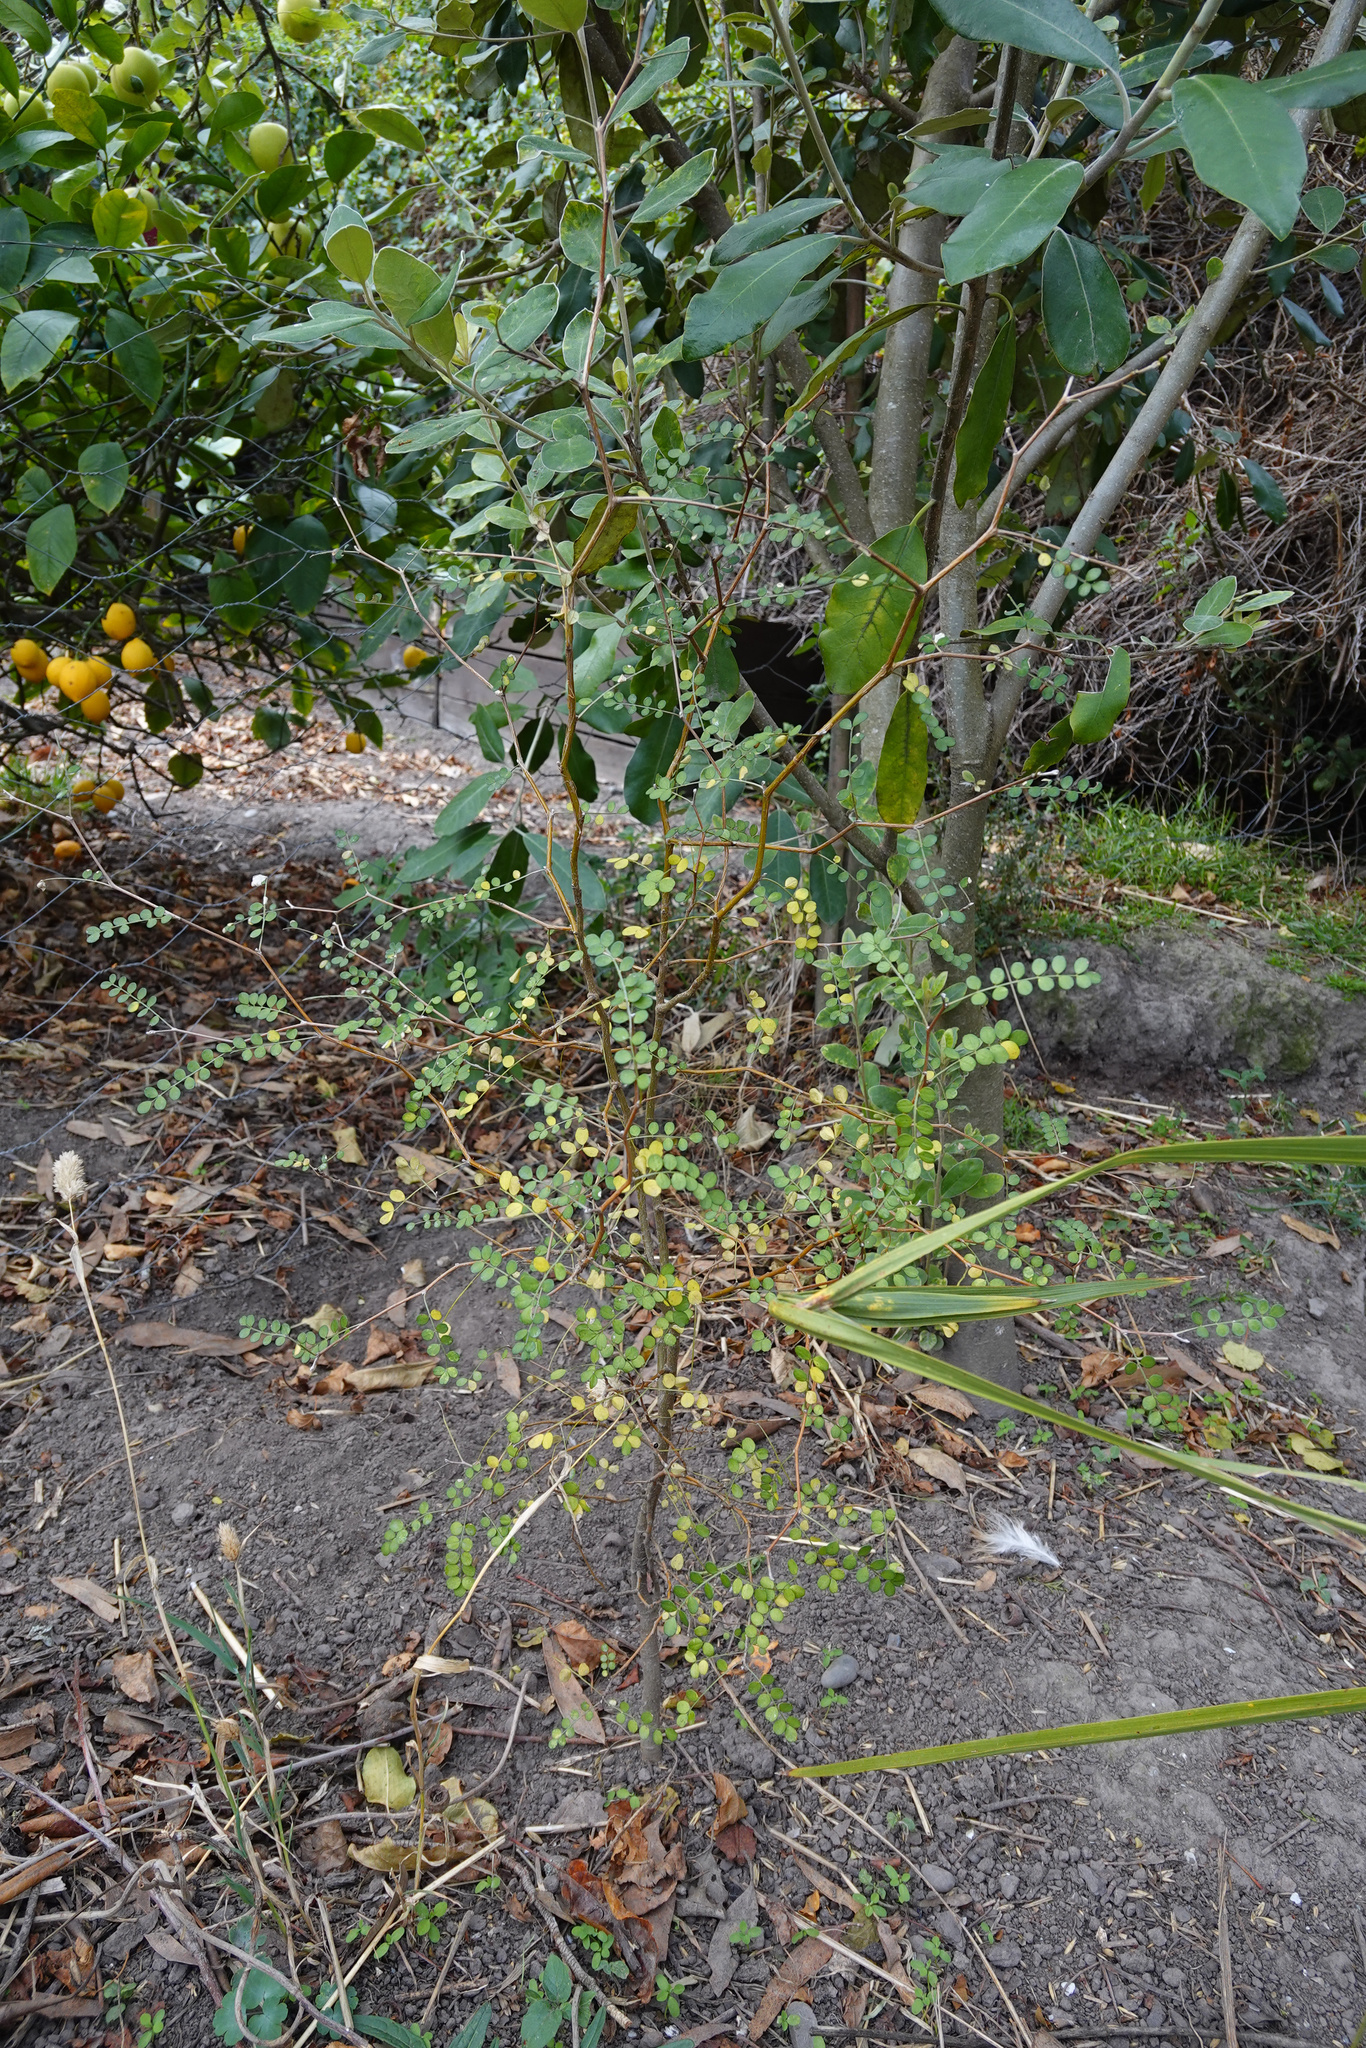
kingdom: Plantae
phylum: Tracheophyta
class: Magnoliopsida
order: Fabales
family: Fabaceae
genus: Sophora
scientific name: Sophora microphylla
